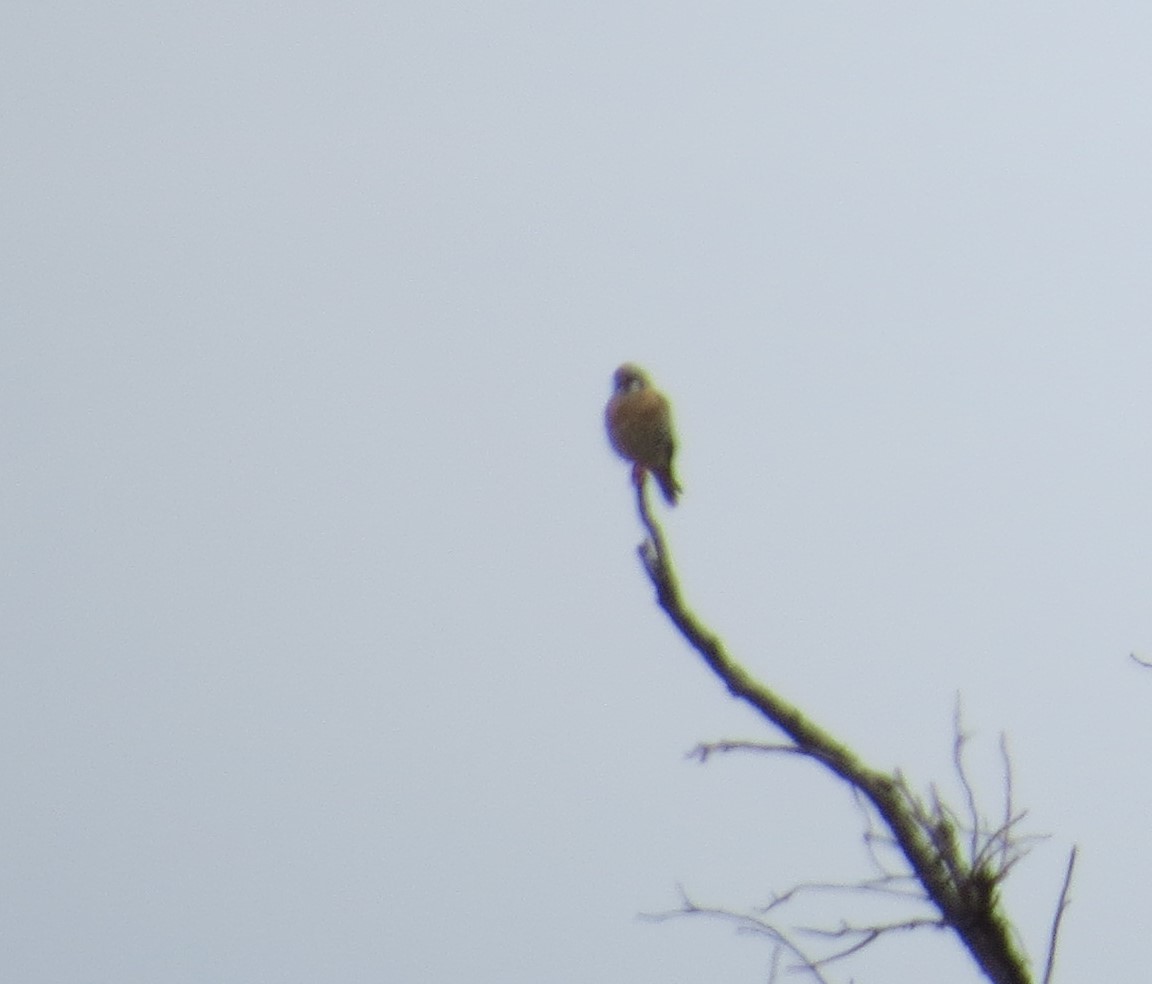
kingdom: Animalia
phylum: Chordata
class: Aves
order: Falconiformes
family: Falconidae
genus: Falco
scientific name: Falco sparverius
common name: American kestrel
